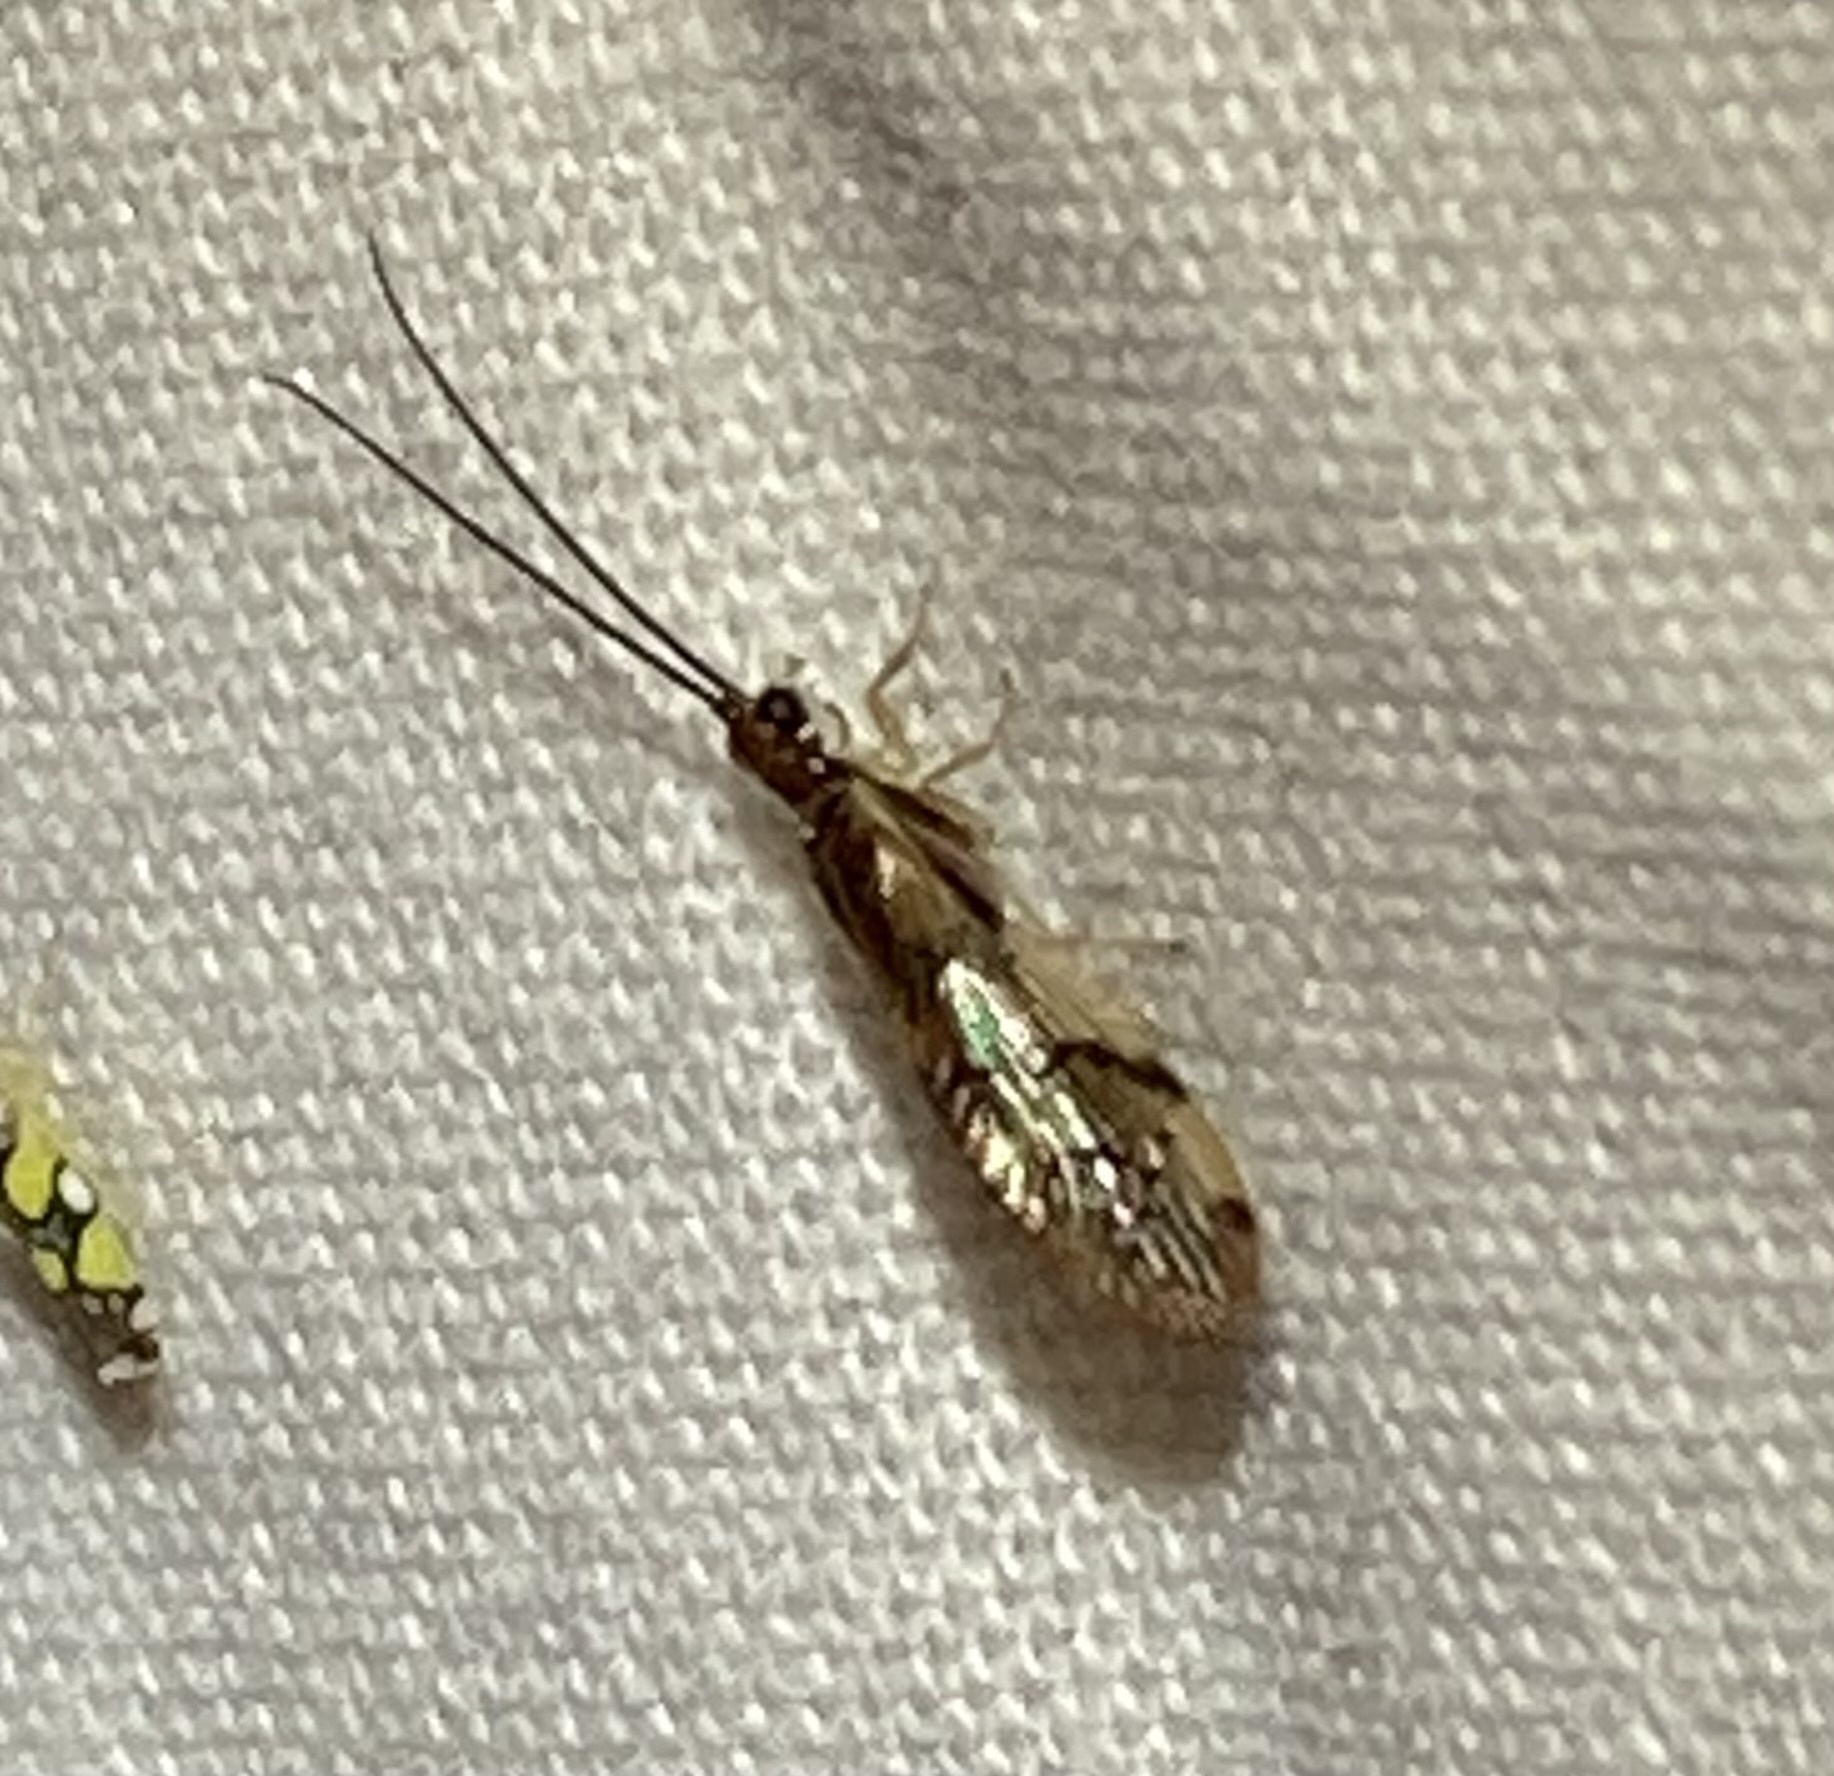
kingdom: Animalia
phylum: Arthropoda
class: Insecta
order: Neuroptera
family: Sisyridae
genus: Climacia
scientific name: Climacia areolaris
